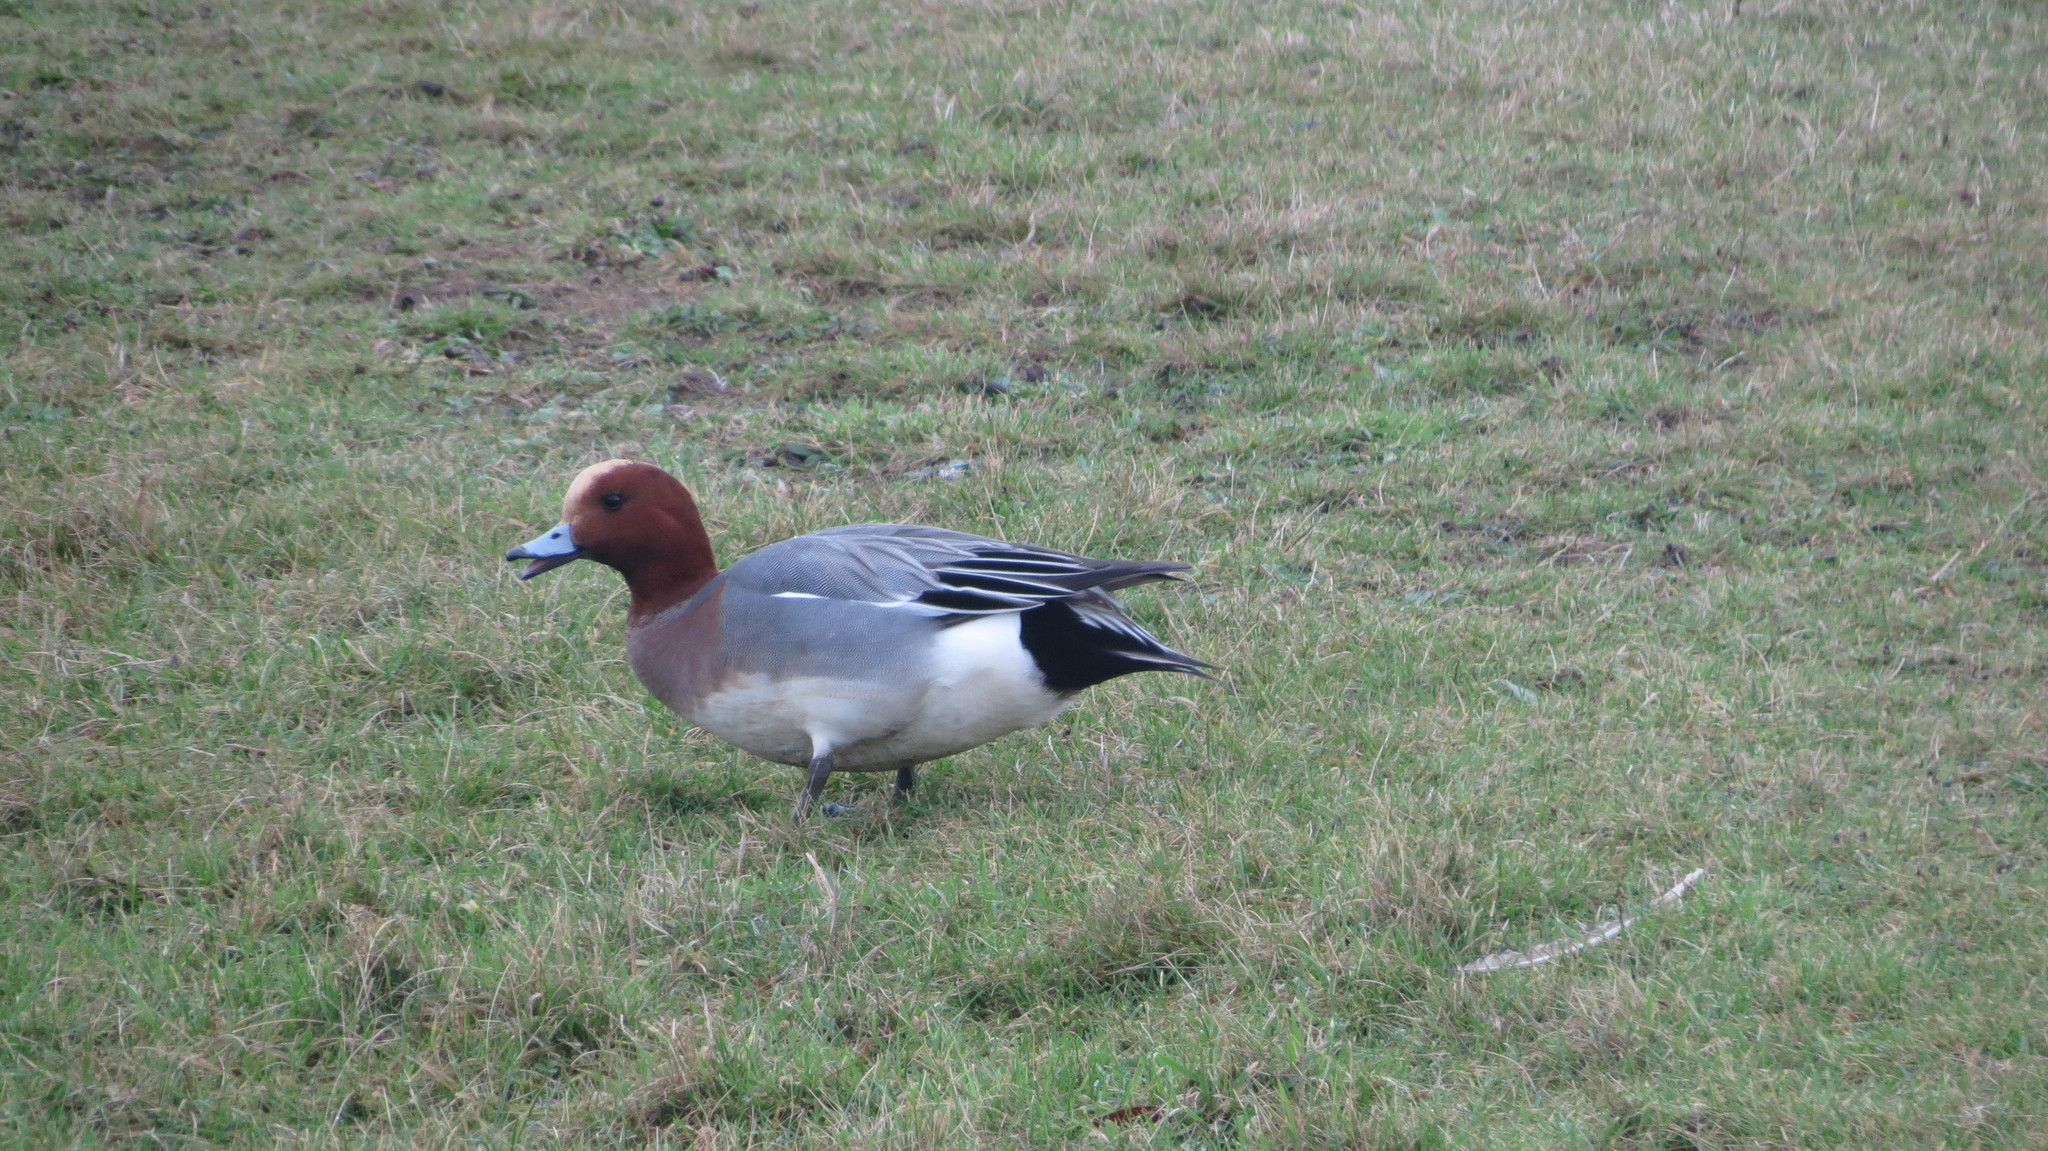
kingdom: Animalia
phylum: Chordata
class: Aves
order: Anseriformes
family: Anatidae
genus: Mareca
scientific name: Mareca penelope
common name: Eurasian wigeon
